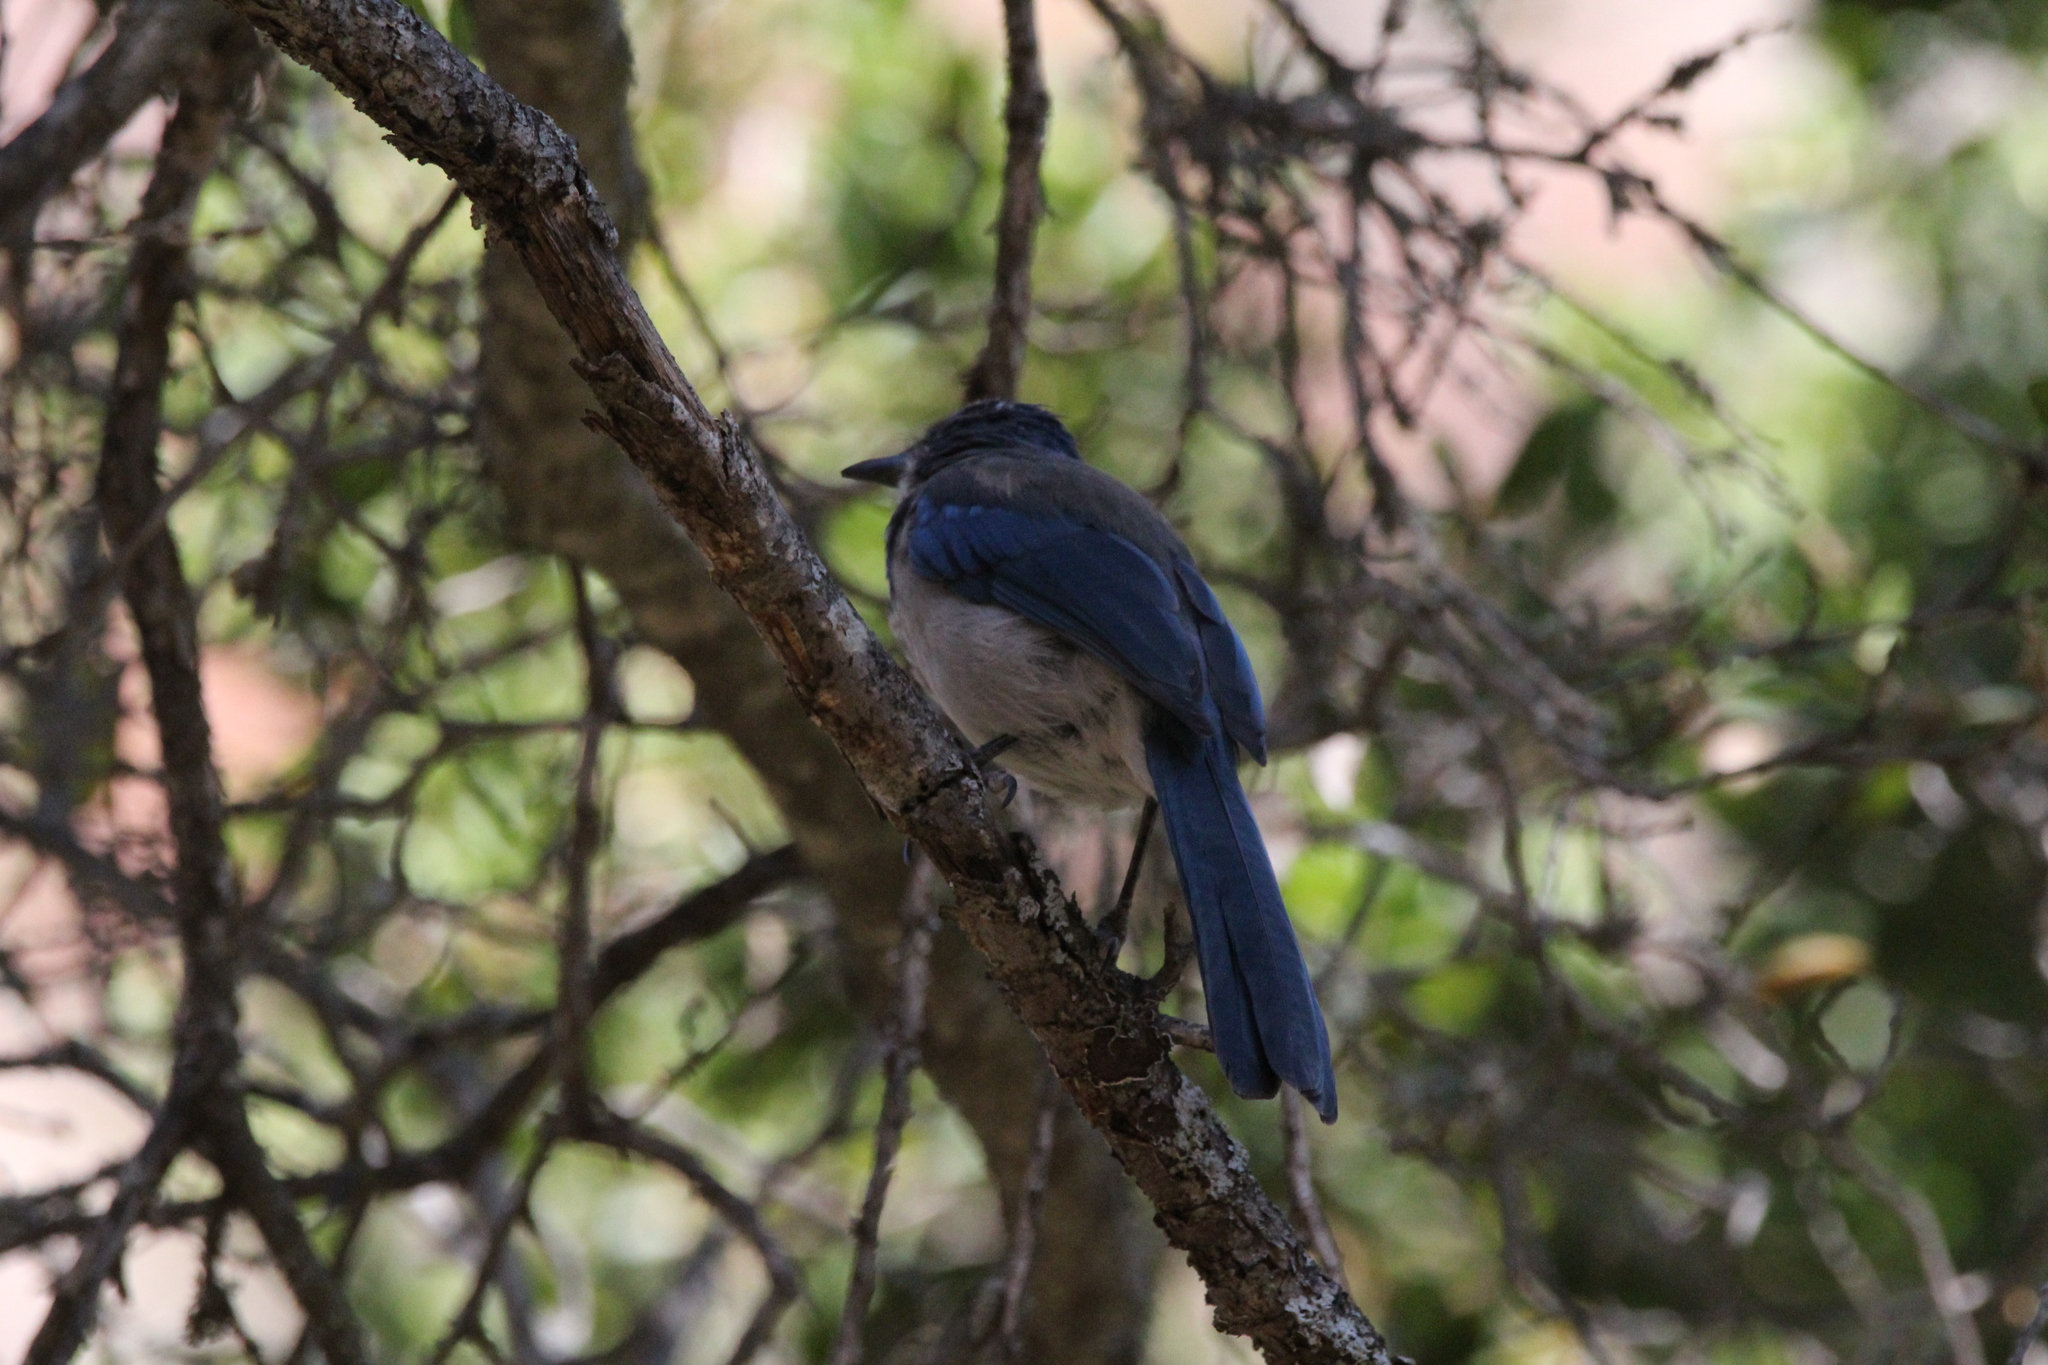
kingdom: Animalia
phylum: Chordata
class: Aves
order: Passeriformes
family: Corvidae
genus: Aphelocoma
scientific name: Aphelocoma californica
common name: California scrub-jay
